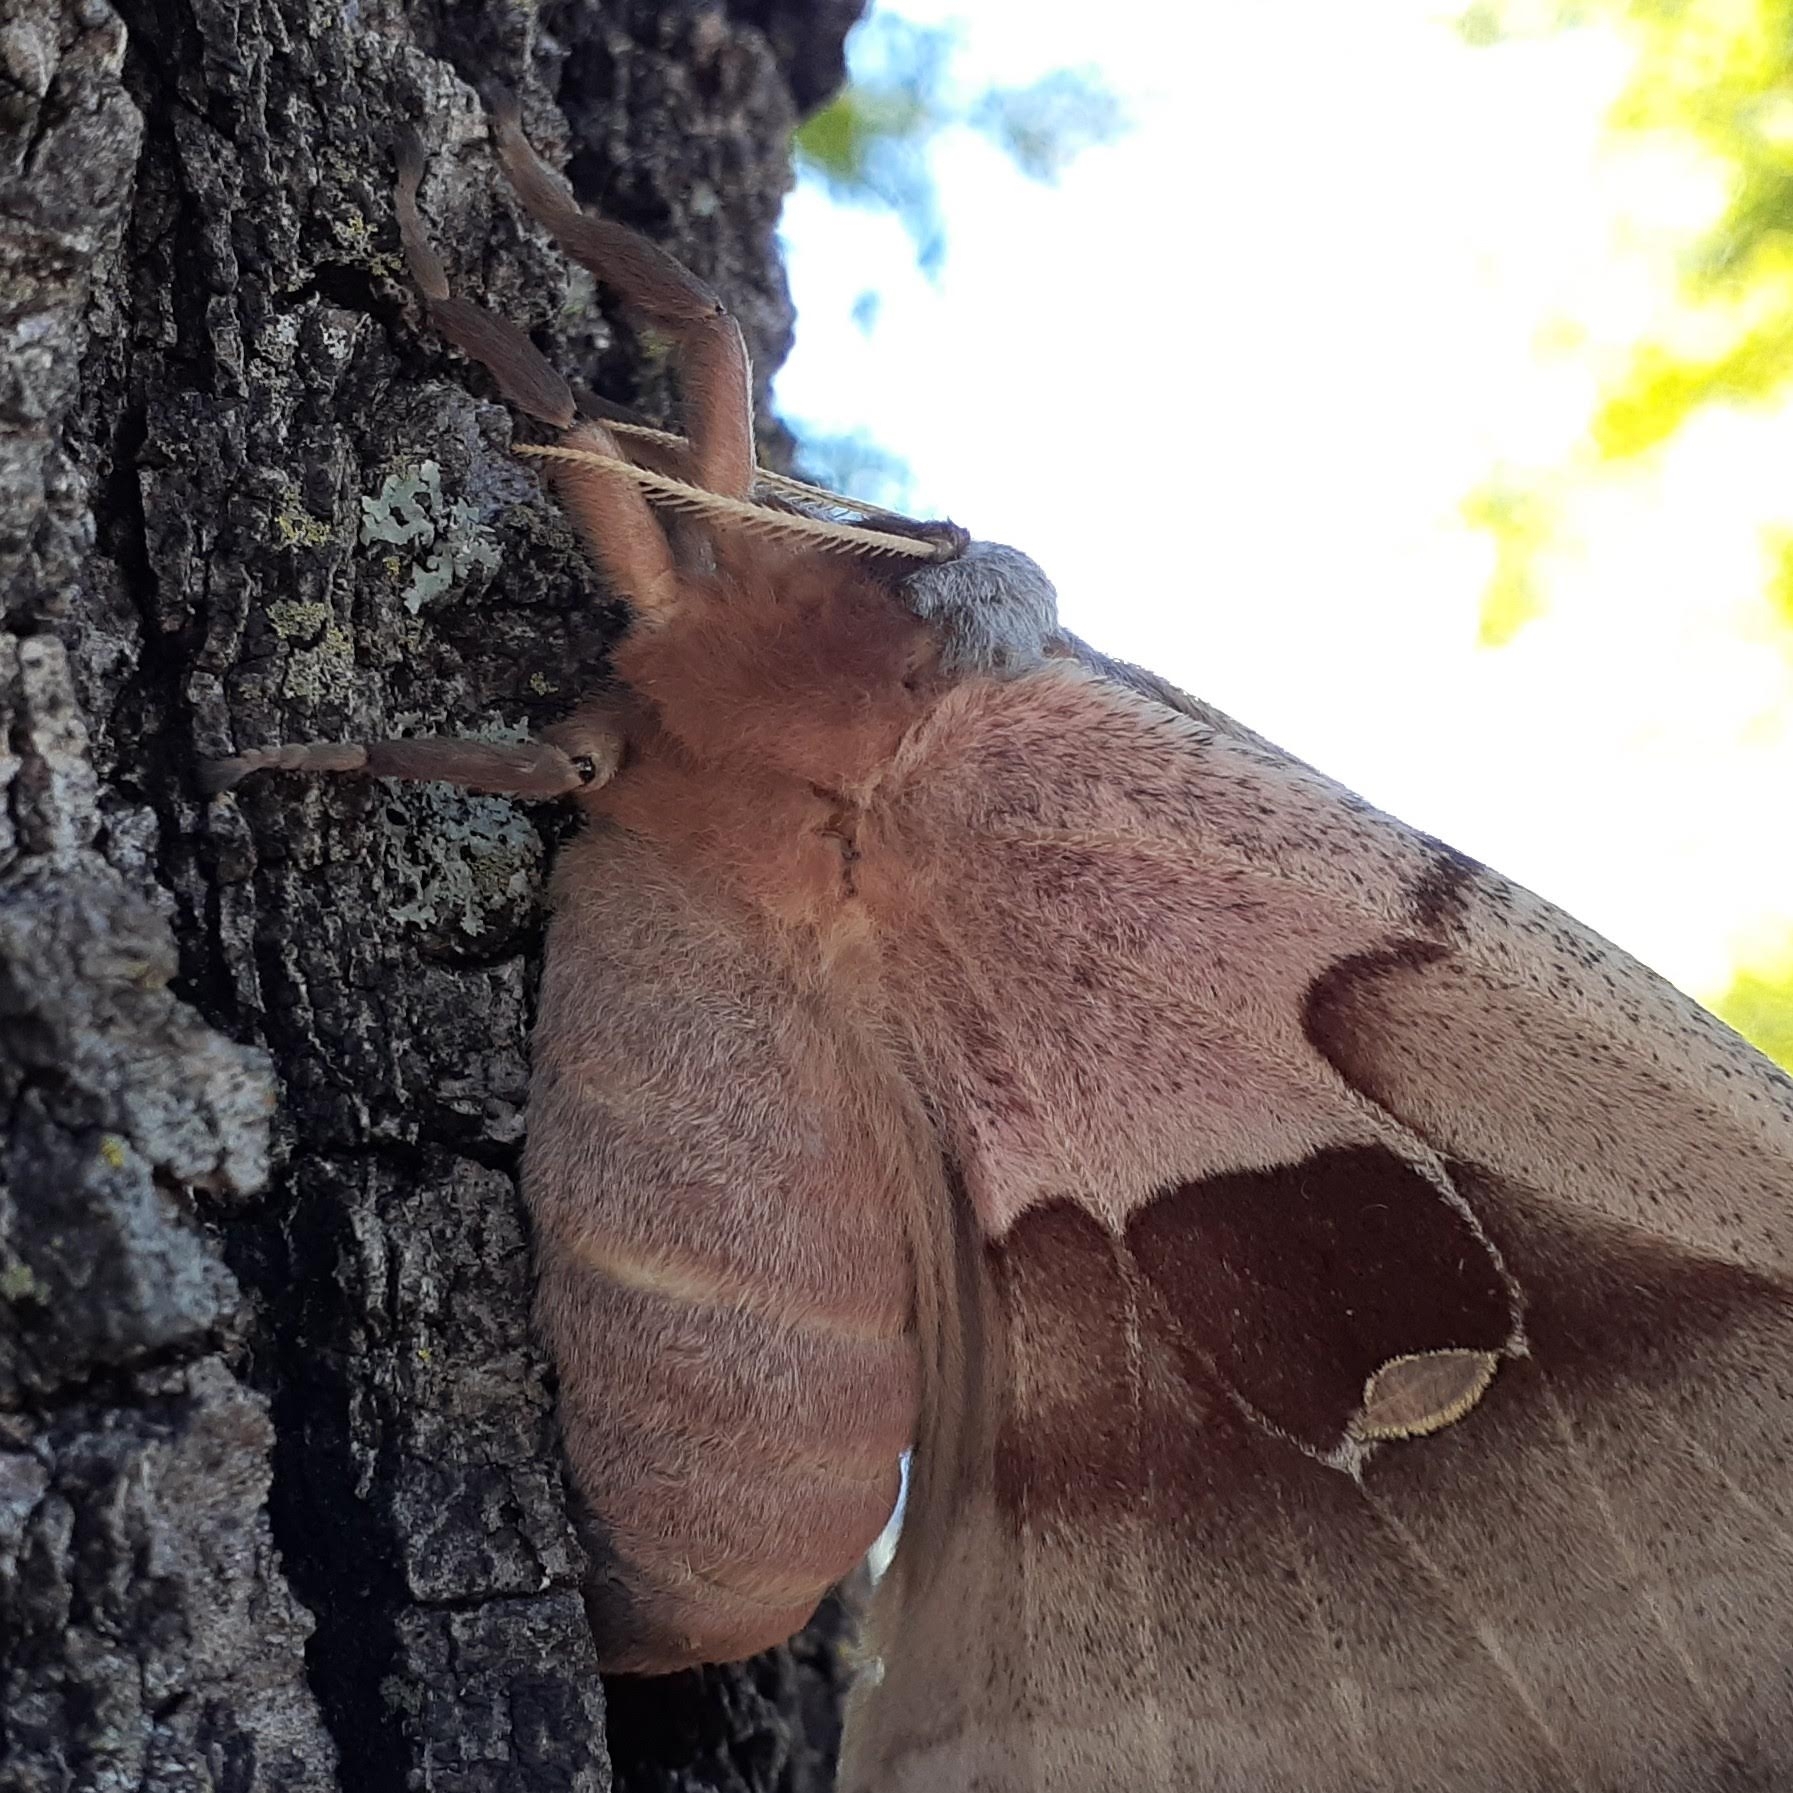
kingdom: Animalia
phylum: Arthropoda
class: Insecta
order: Lepidoptera
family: Saturniidae
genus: Antheraea
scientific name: Antheraea polyphemus
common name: Polyphemus moth
